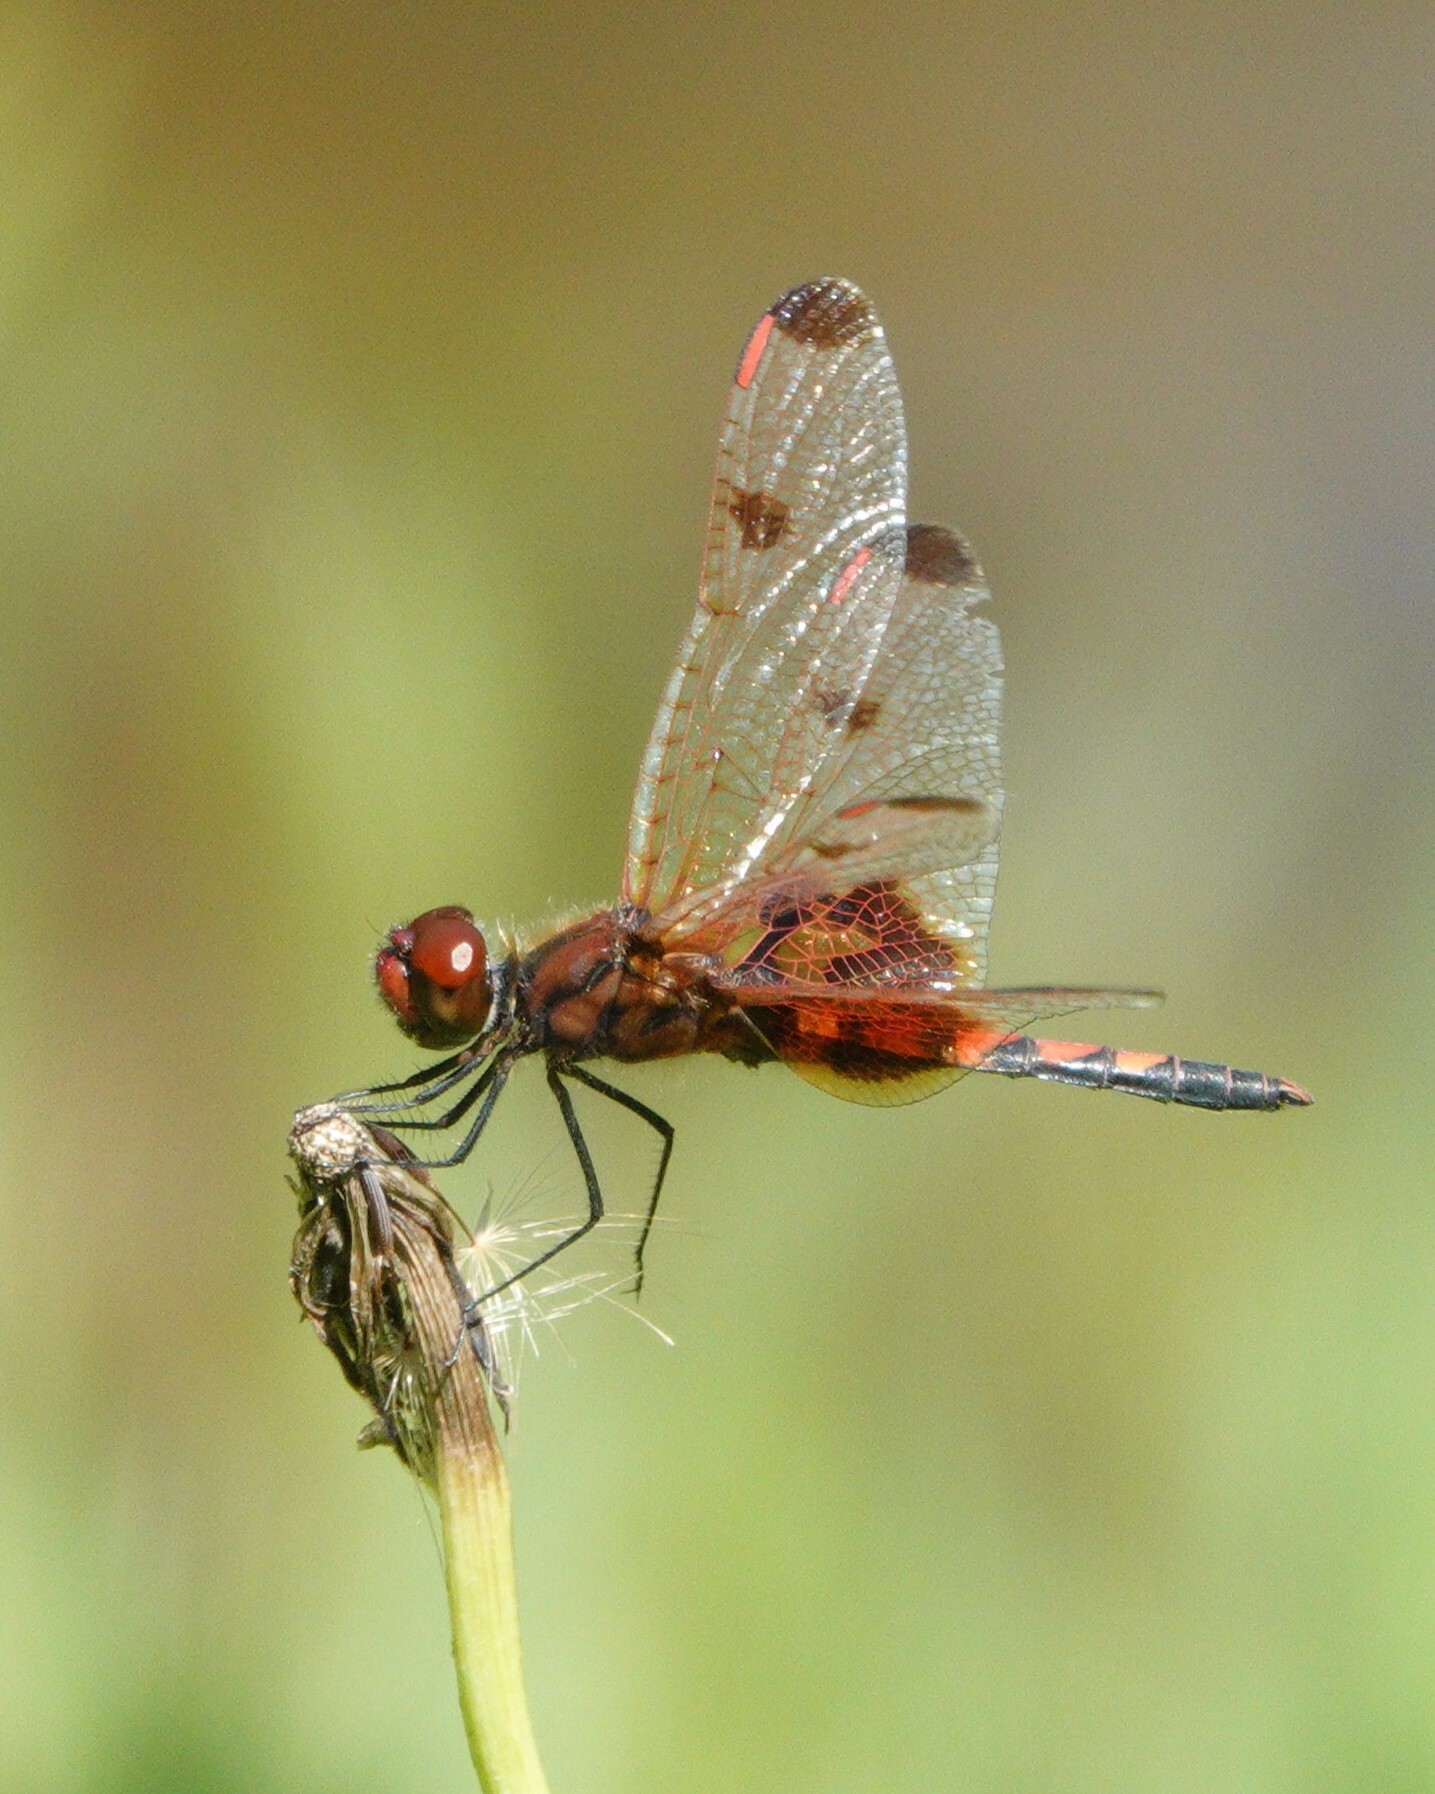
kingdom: Animalia
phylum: Arthropoda
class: Insecta
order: Odonata
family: Libellulidae
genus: Celithemis
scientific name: Celithemis elisa
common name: Calico pennant
